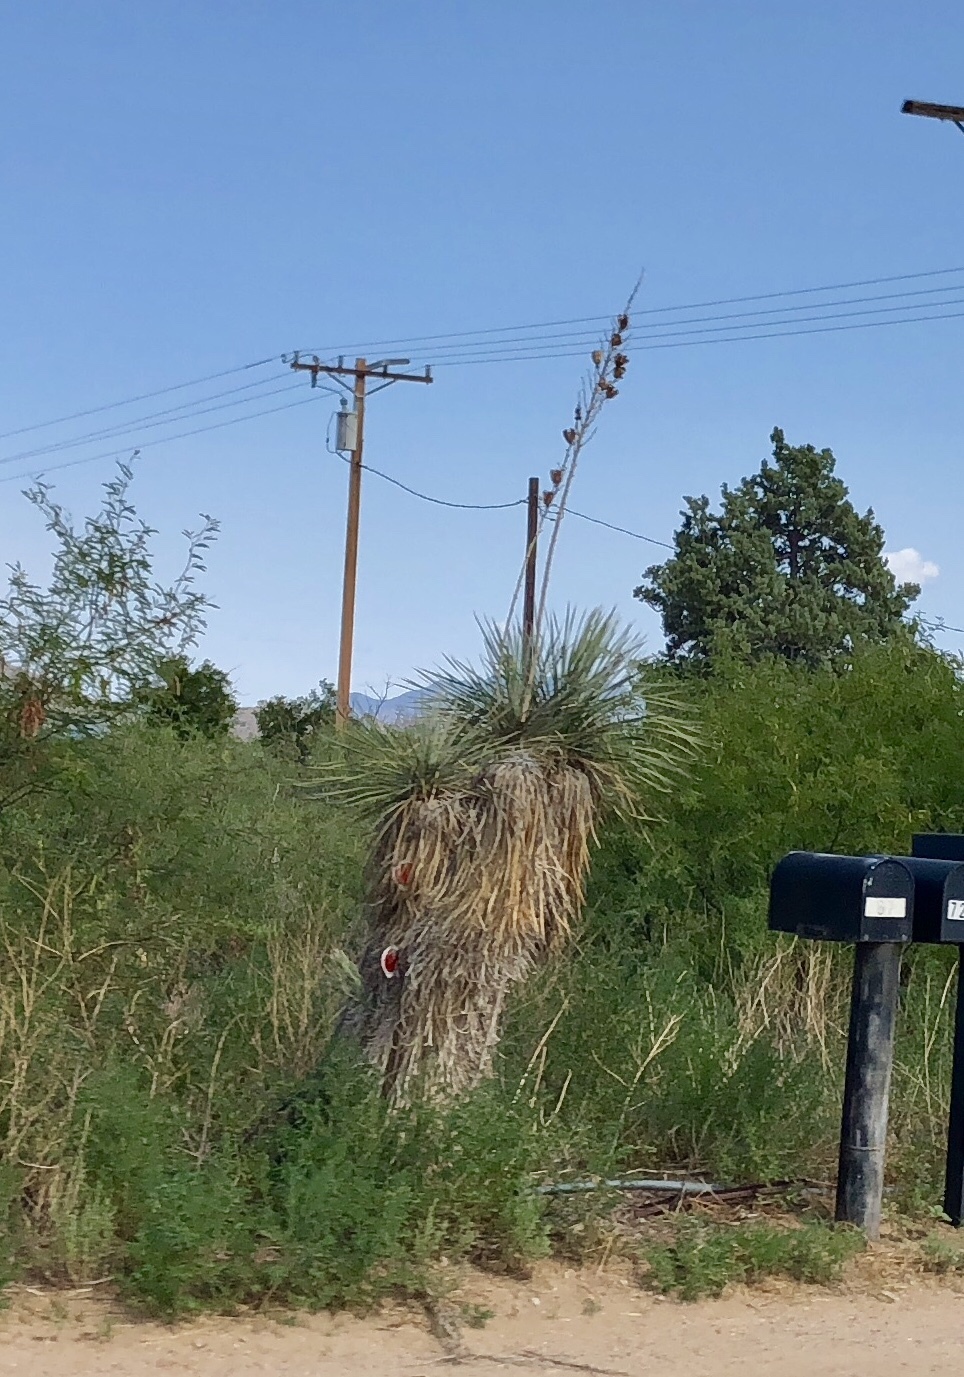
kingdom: Plantae
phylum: Tracheophyta
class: Liliopsida
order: Asparagales
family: Asparagaceae
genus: Yucca
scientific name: Yucca elata
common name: Palmella
